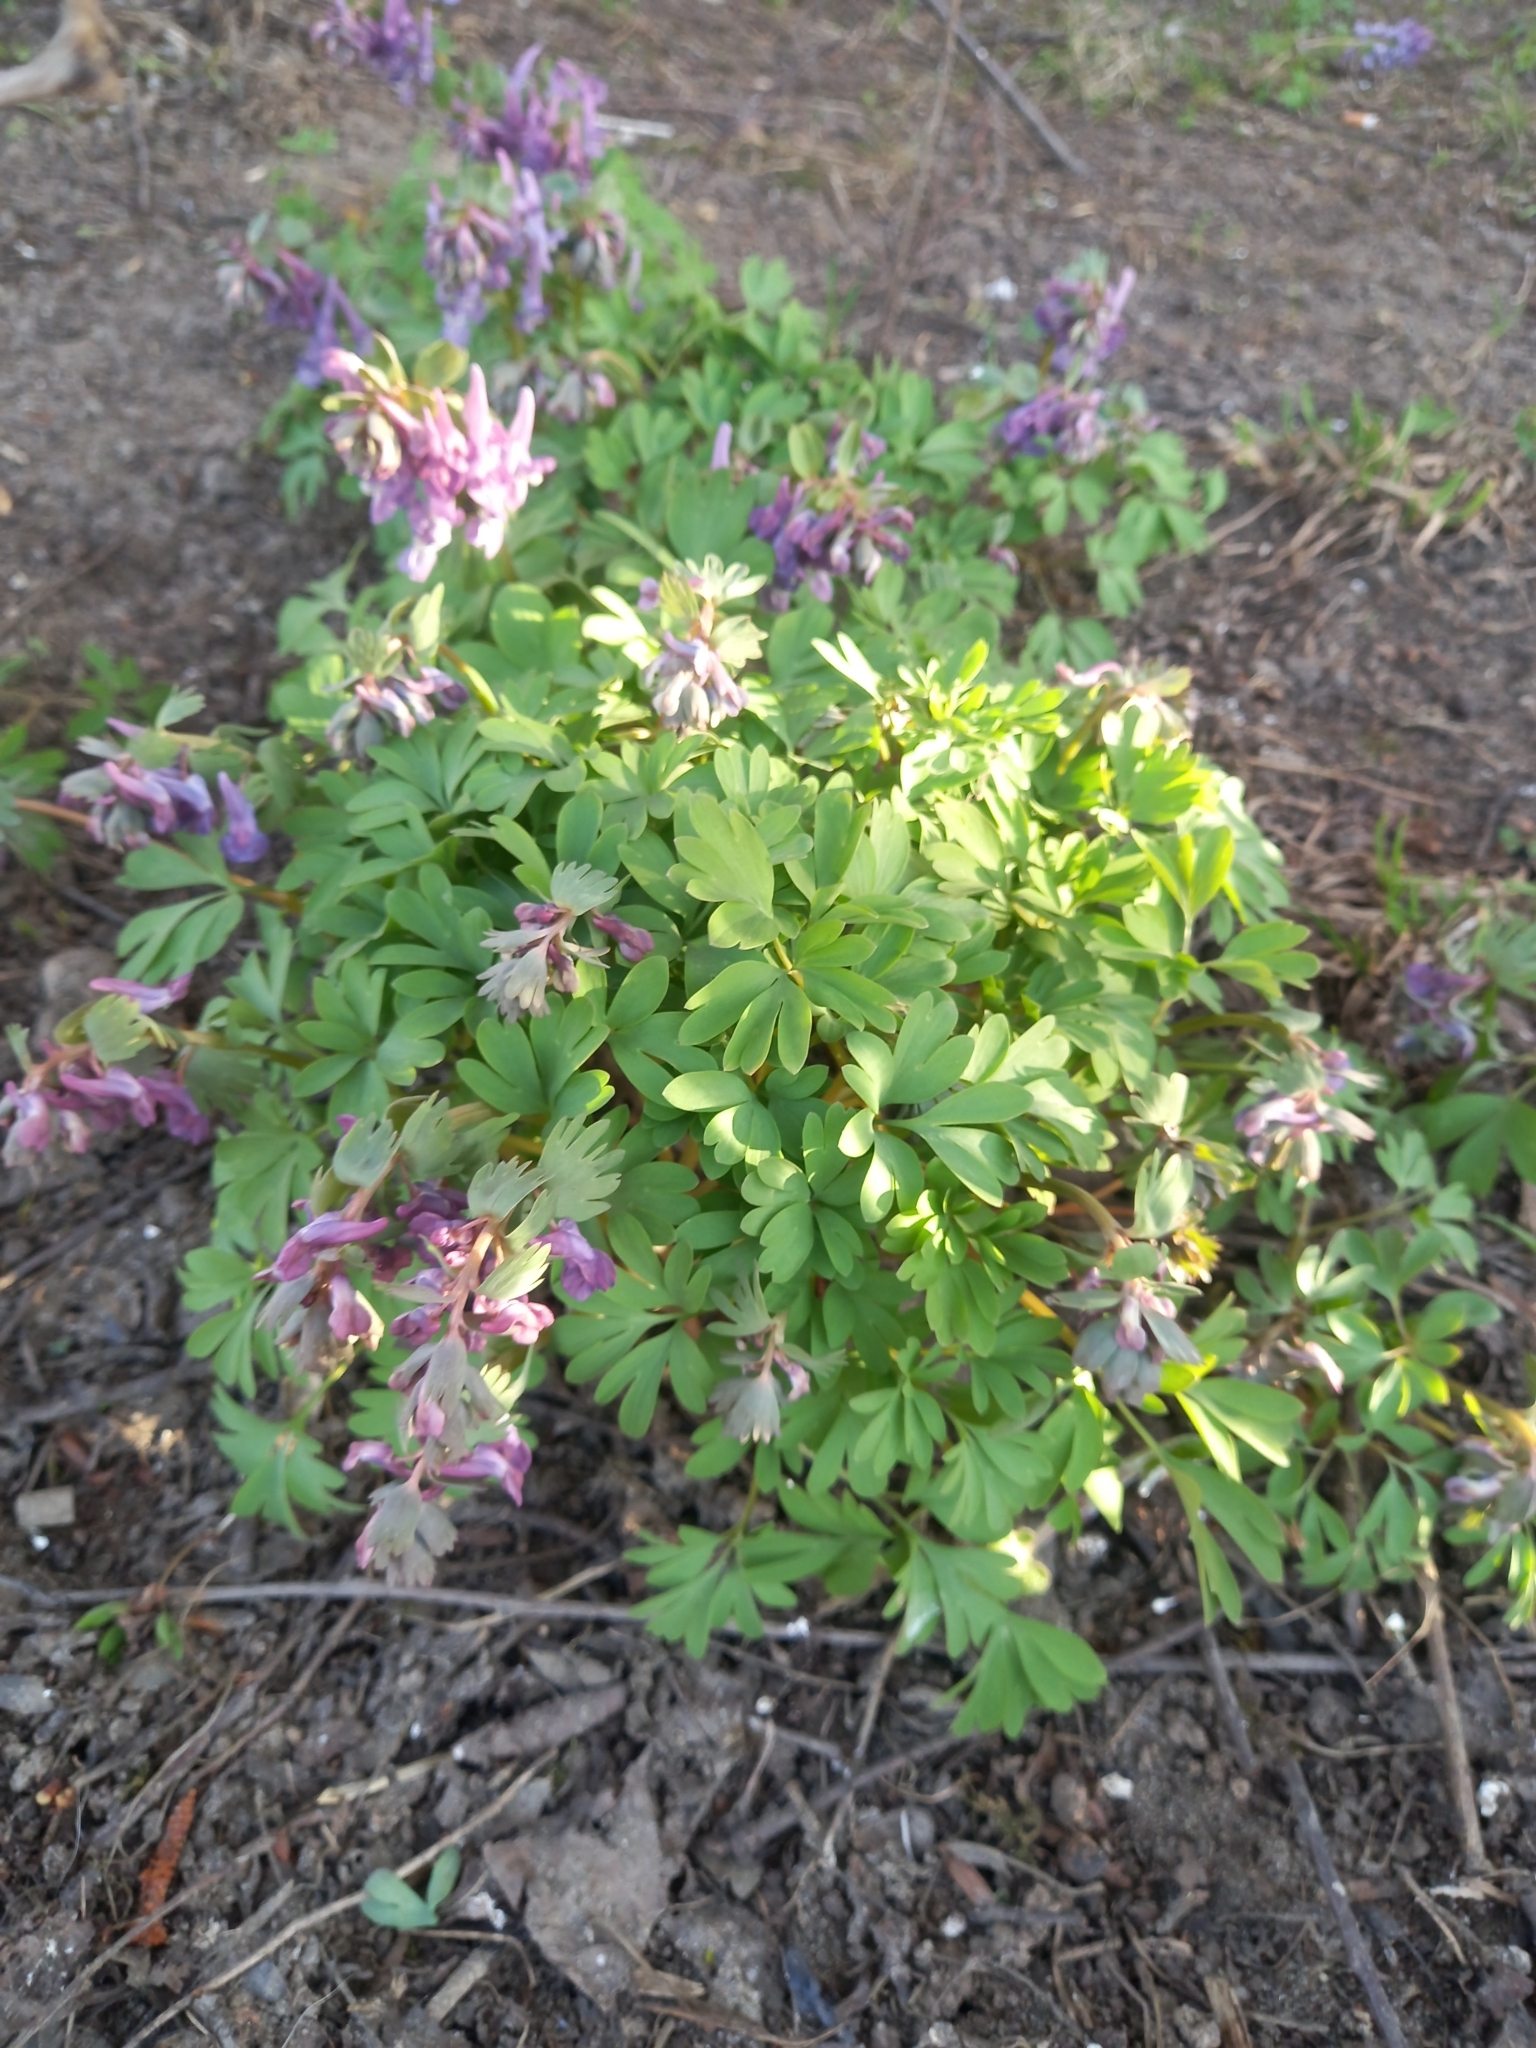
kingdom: Plantae
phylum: Tracheophyta
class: Magnoliopsida
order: Ranunculales
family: Papaveraceae
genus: Corydalis
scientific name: Corydalis solida
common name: Bird-in-a-bush
